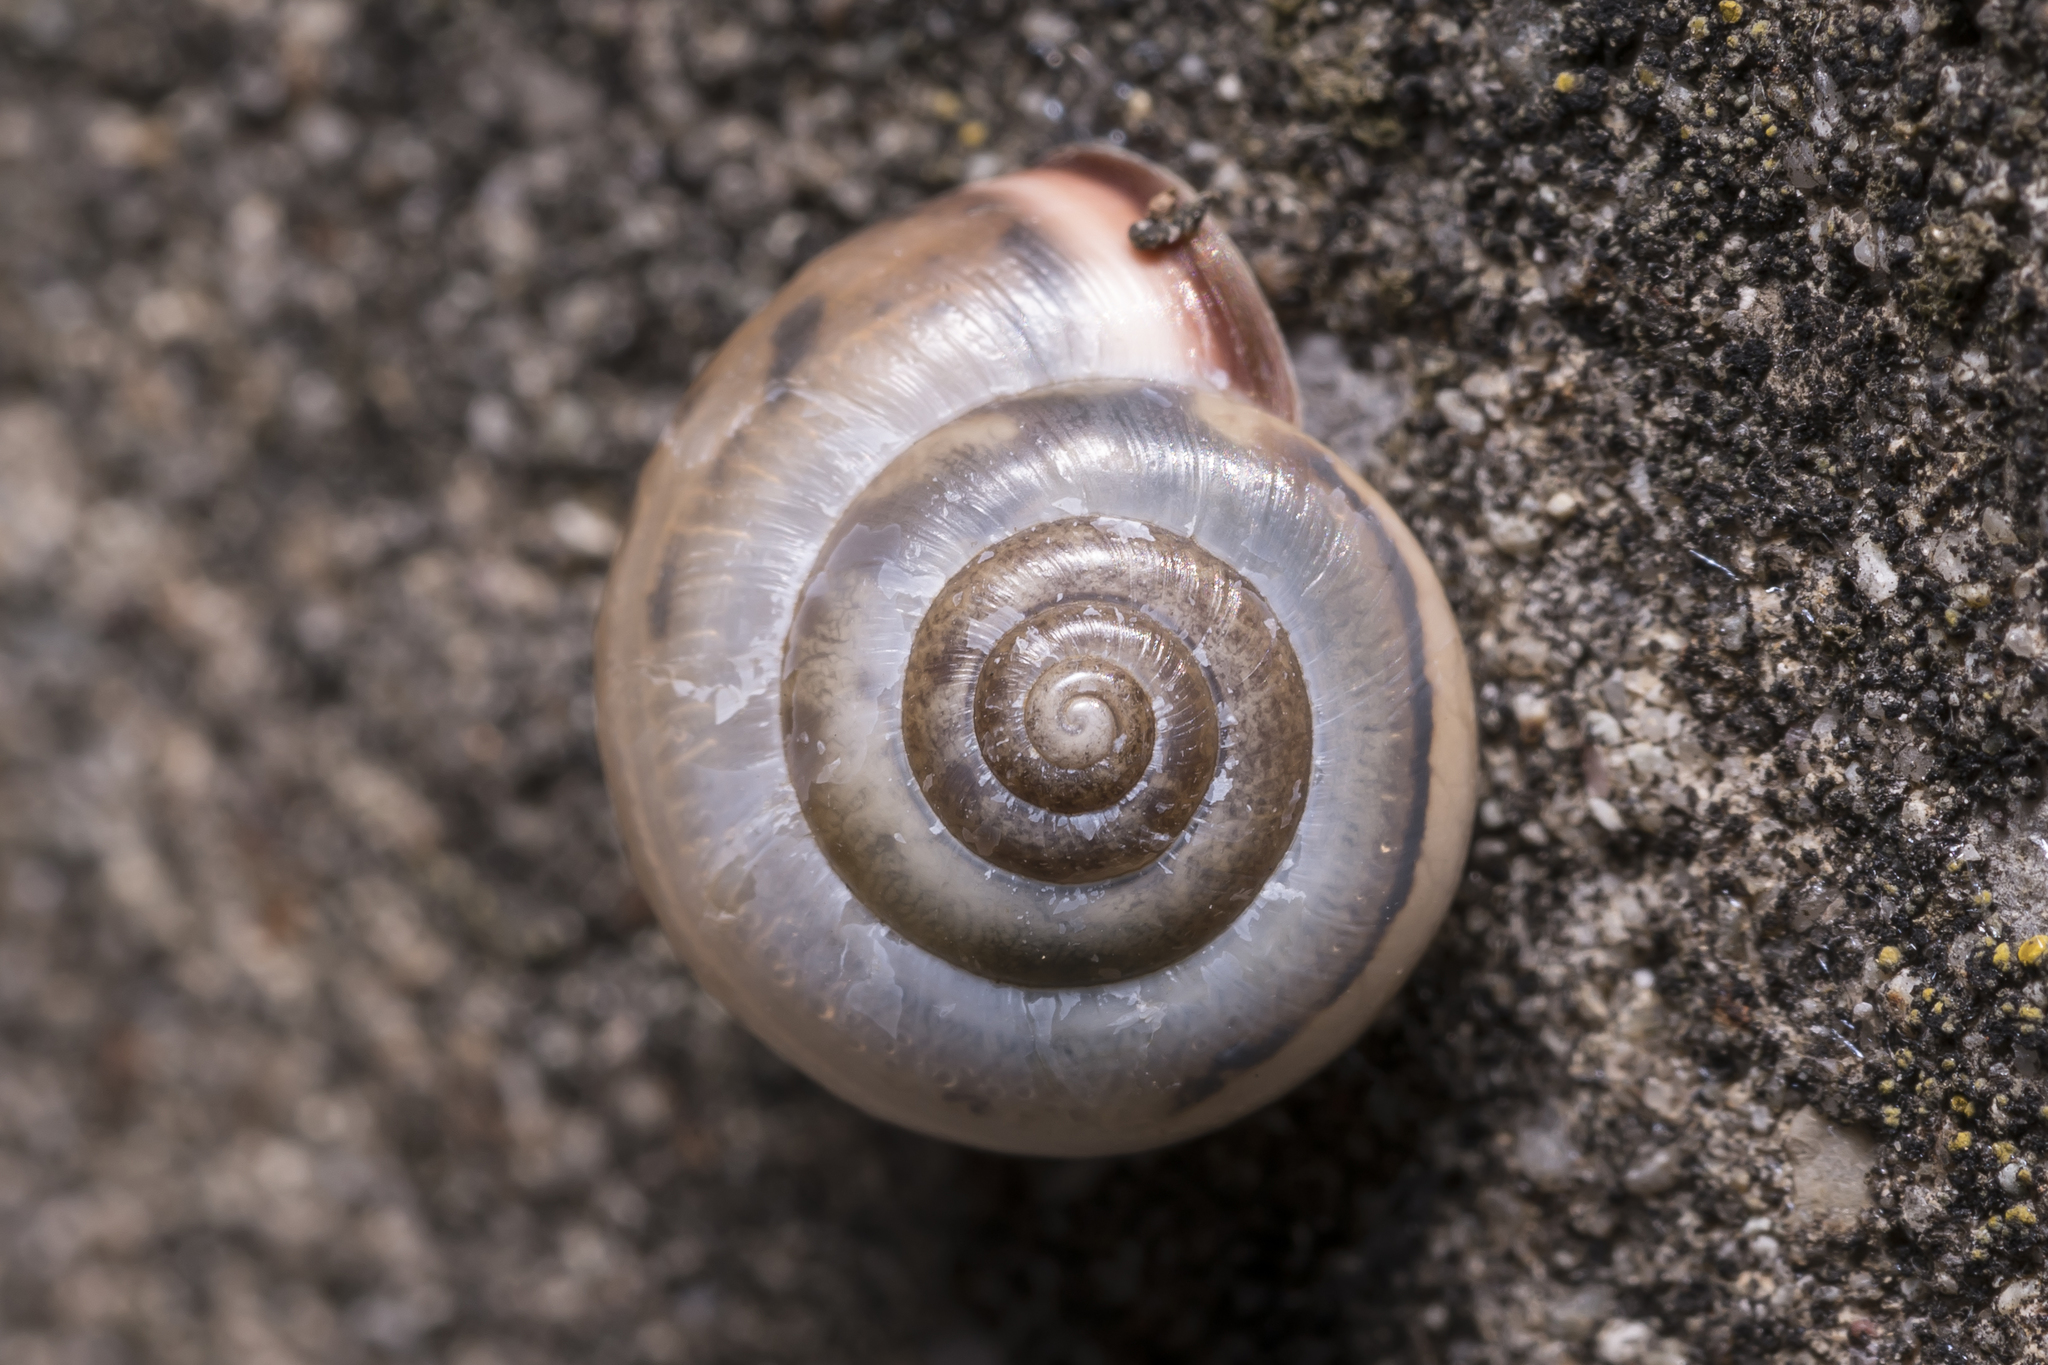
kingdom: Animalia
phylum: Mollusca
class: Gastropoda
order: Stylommatophora
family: Hygromiidae
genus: Monacha
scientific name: Monacha cartusiana
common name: Carthusian snail
